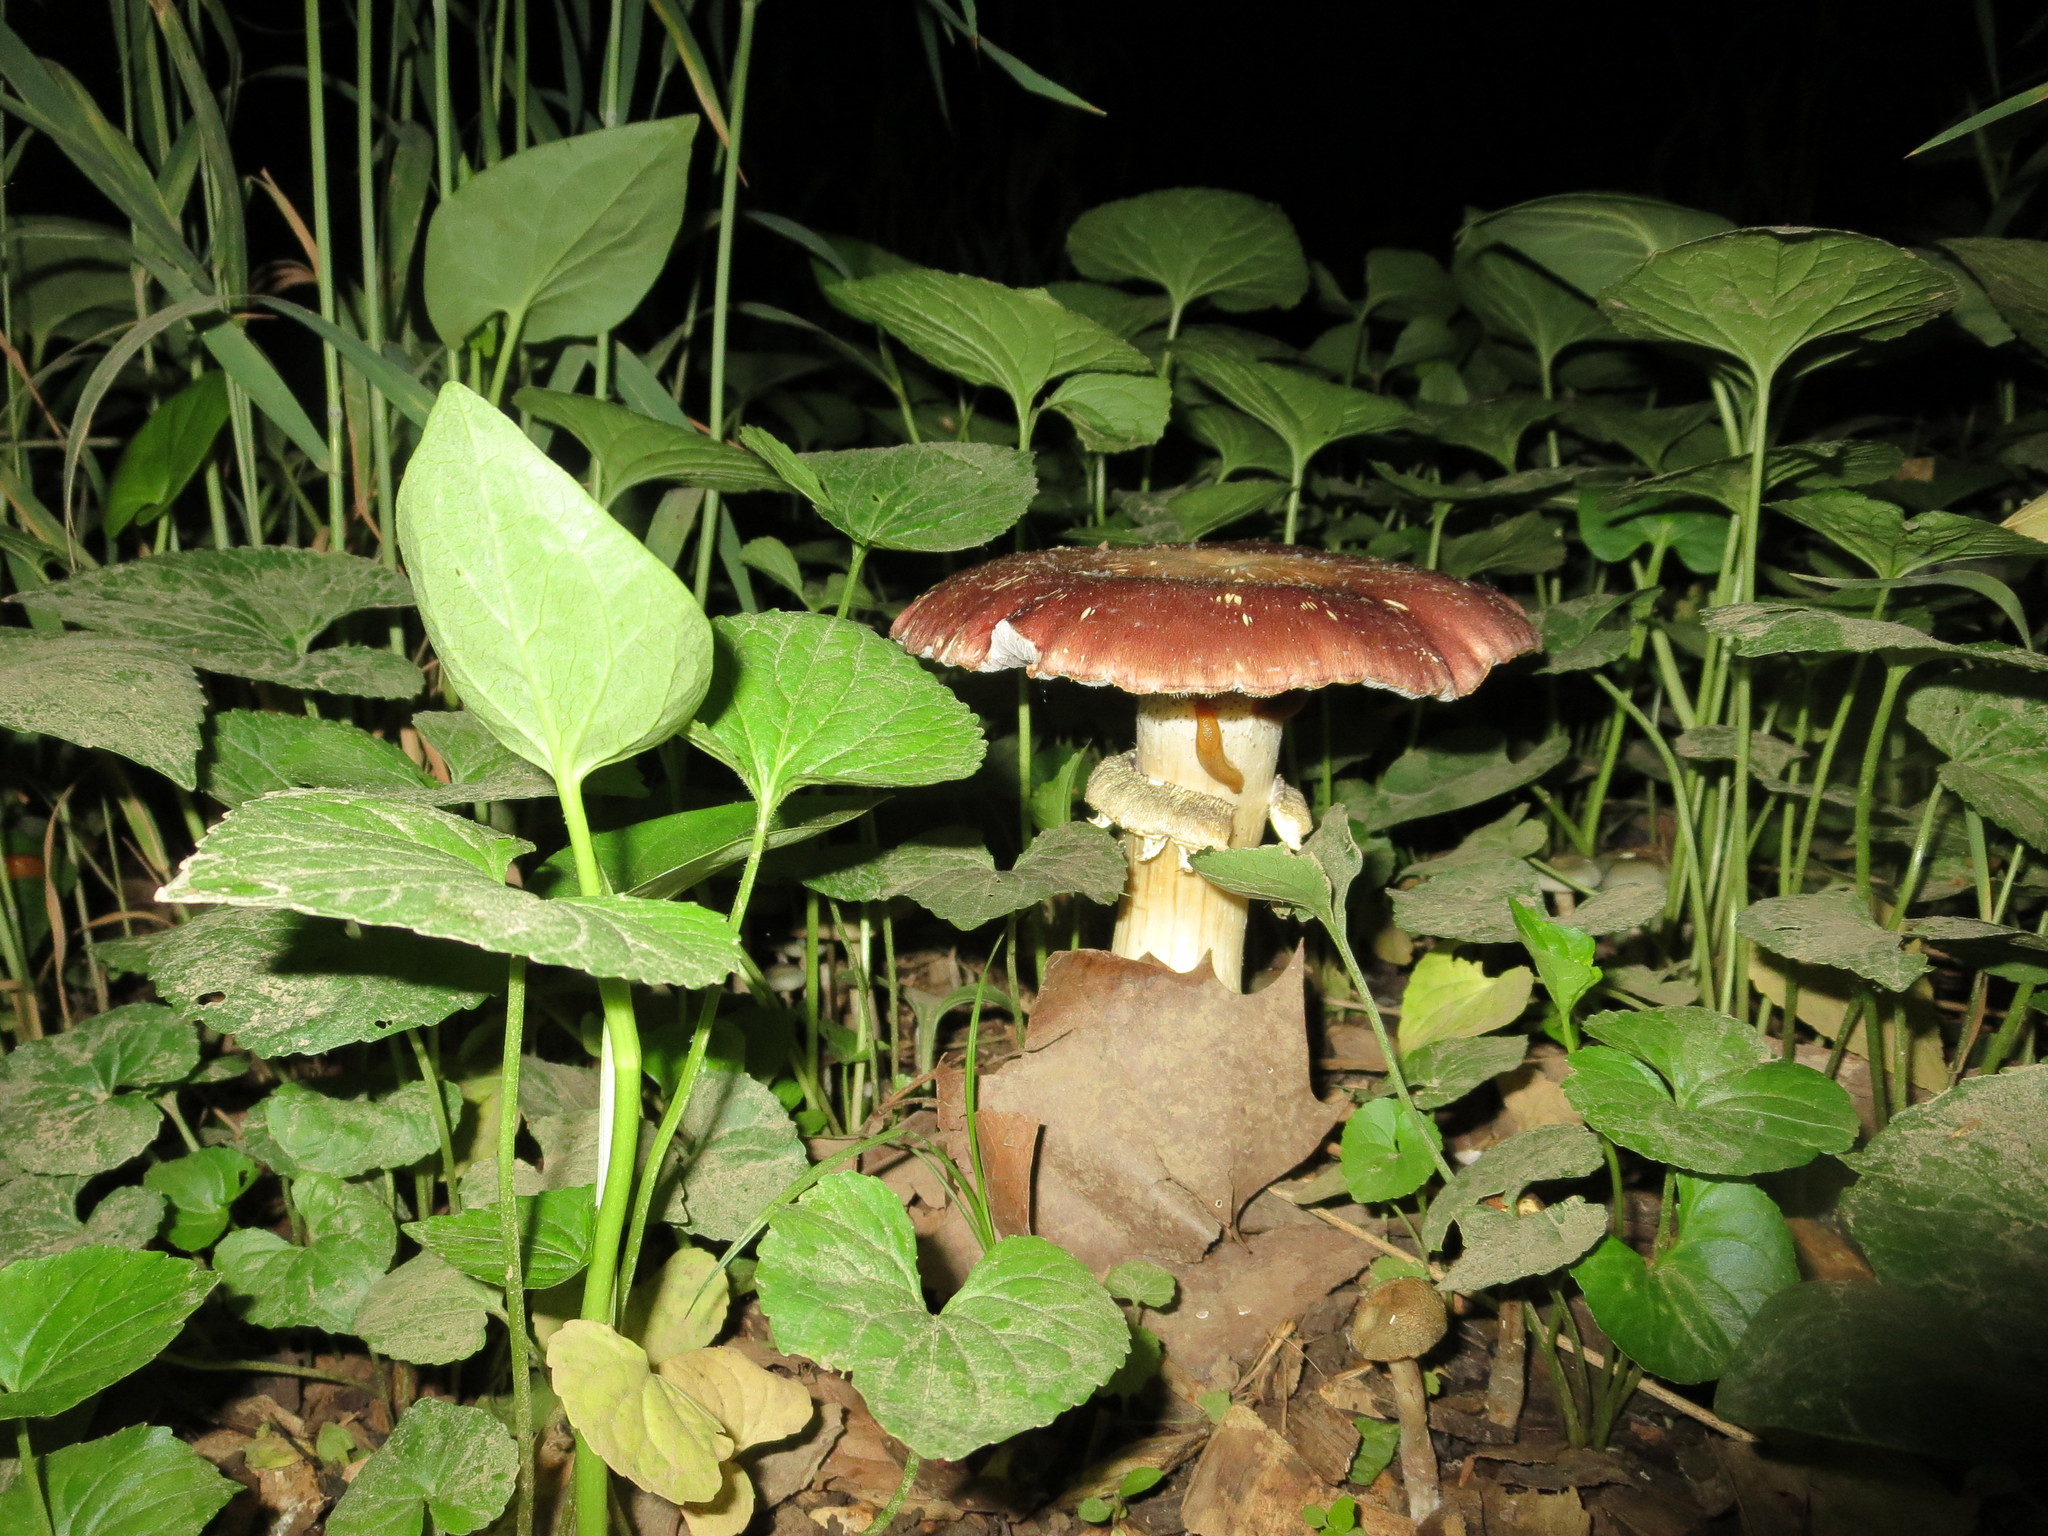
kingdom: Fungi
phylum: Basidiomycota
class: Agaricomycetes
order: Agaricales
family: Strophariaceae
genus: Stropharia
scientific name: Stropharia rugosoannulata
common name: Wine roundhead
